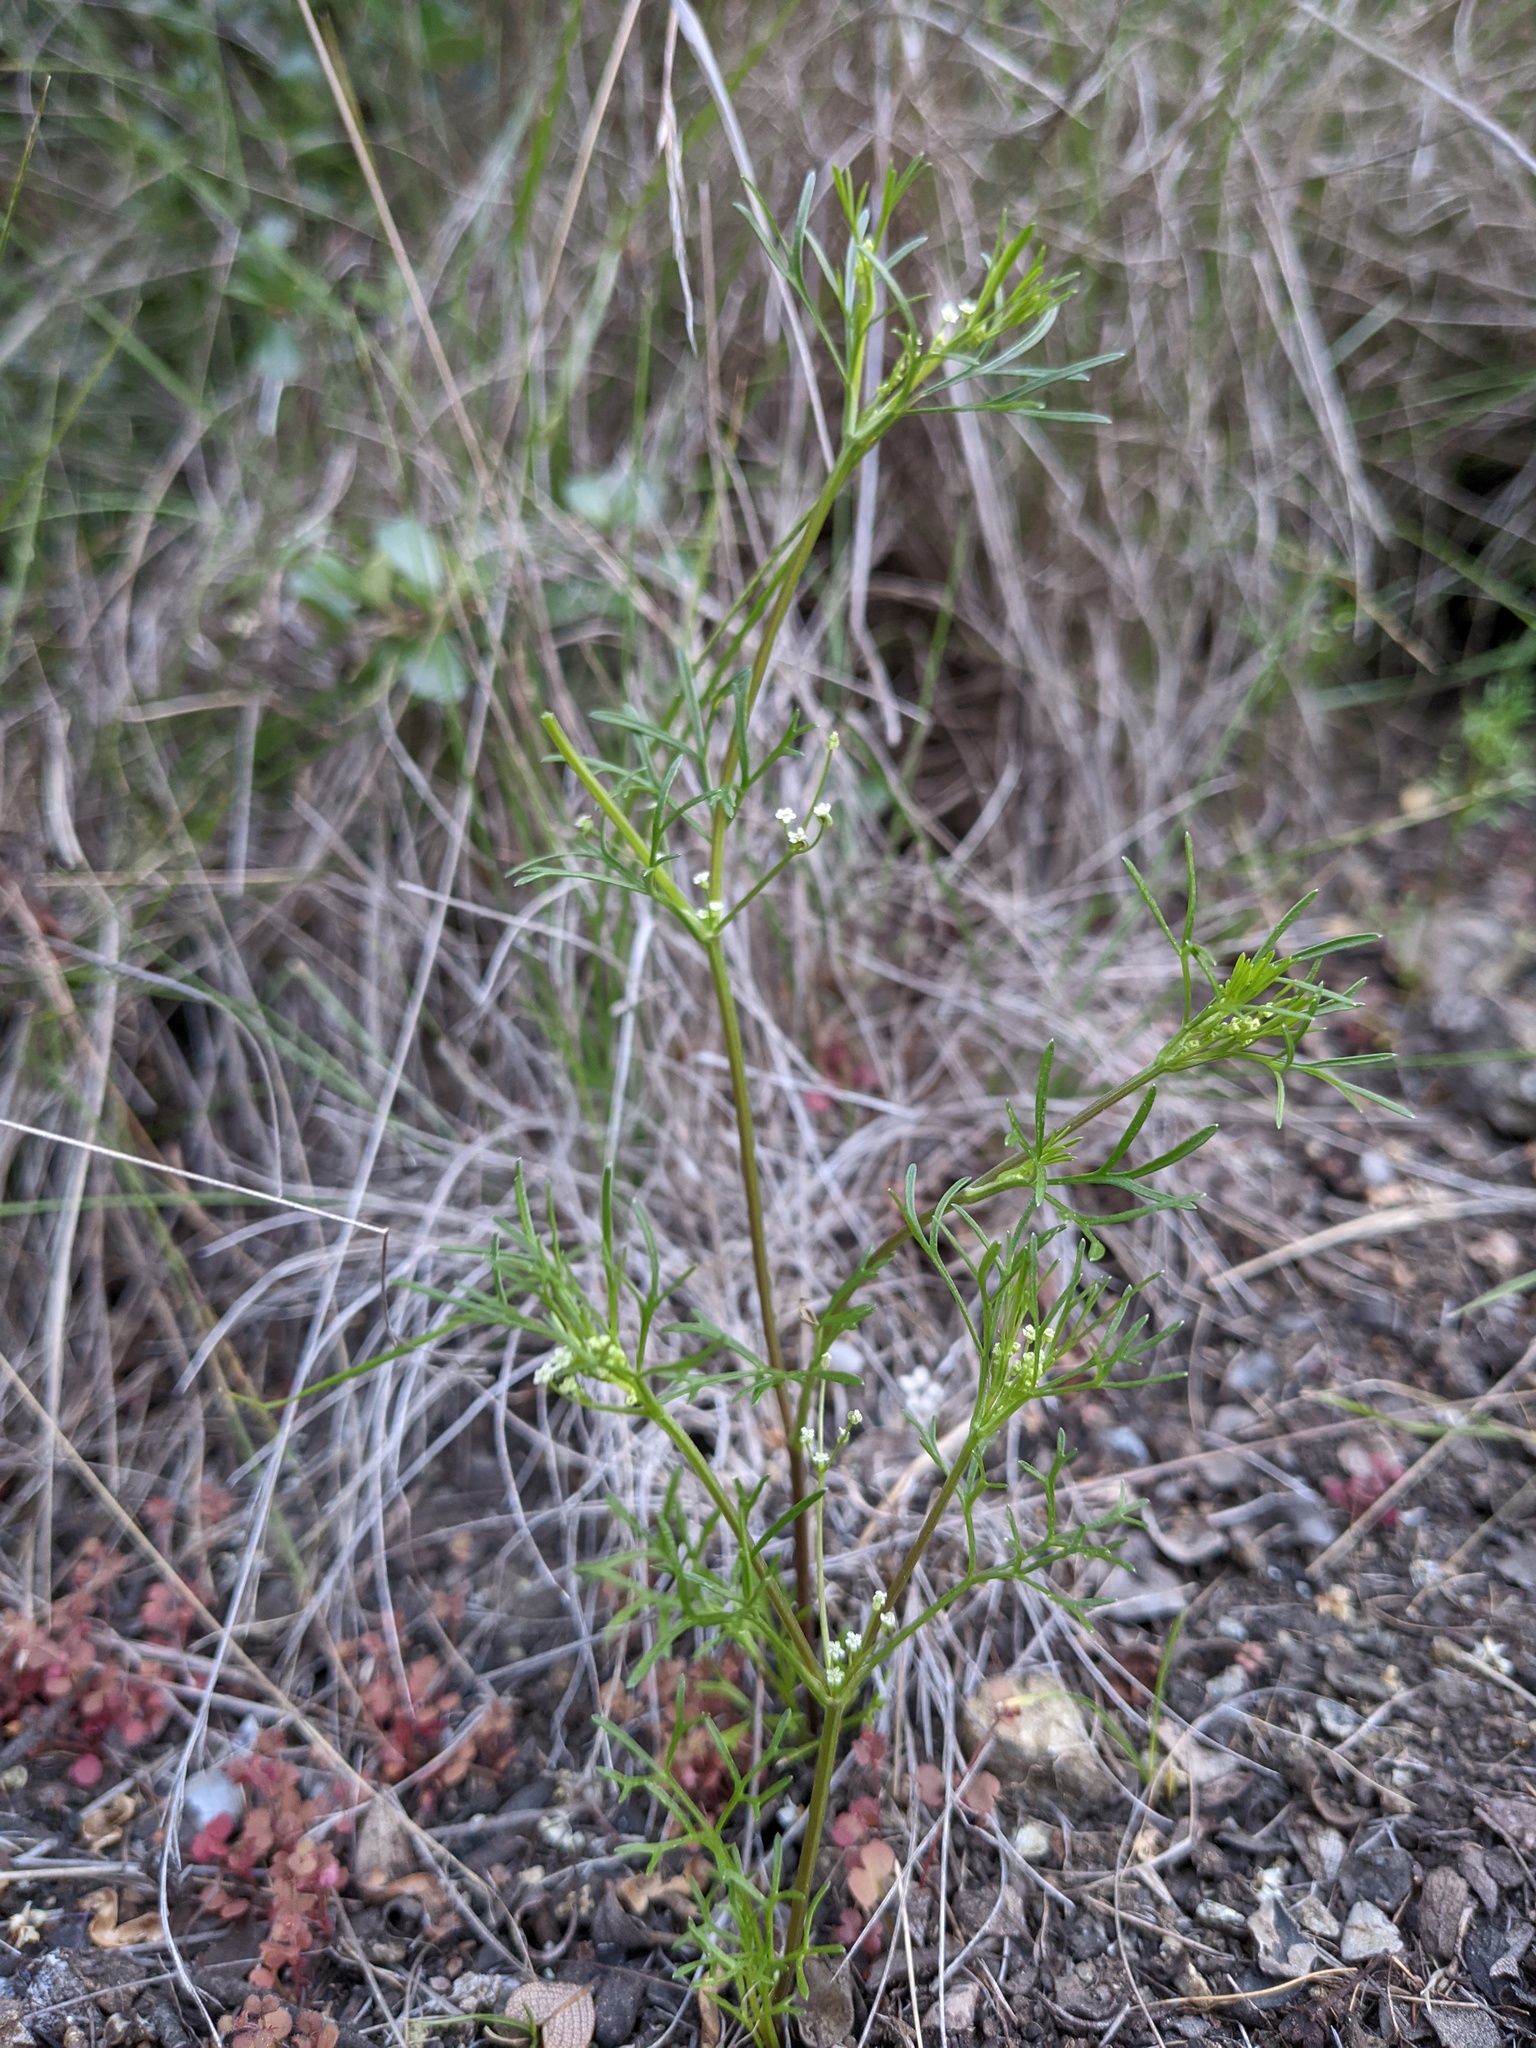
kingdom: Plantae
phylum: Tracheophyta
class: Magnoliopsida
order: Apiales
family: Apiaceae
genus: Apiastrum
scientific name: Apiastrum angustifolium
